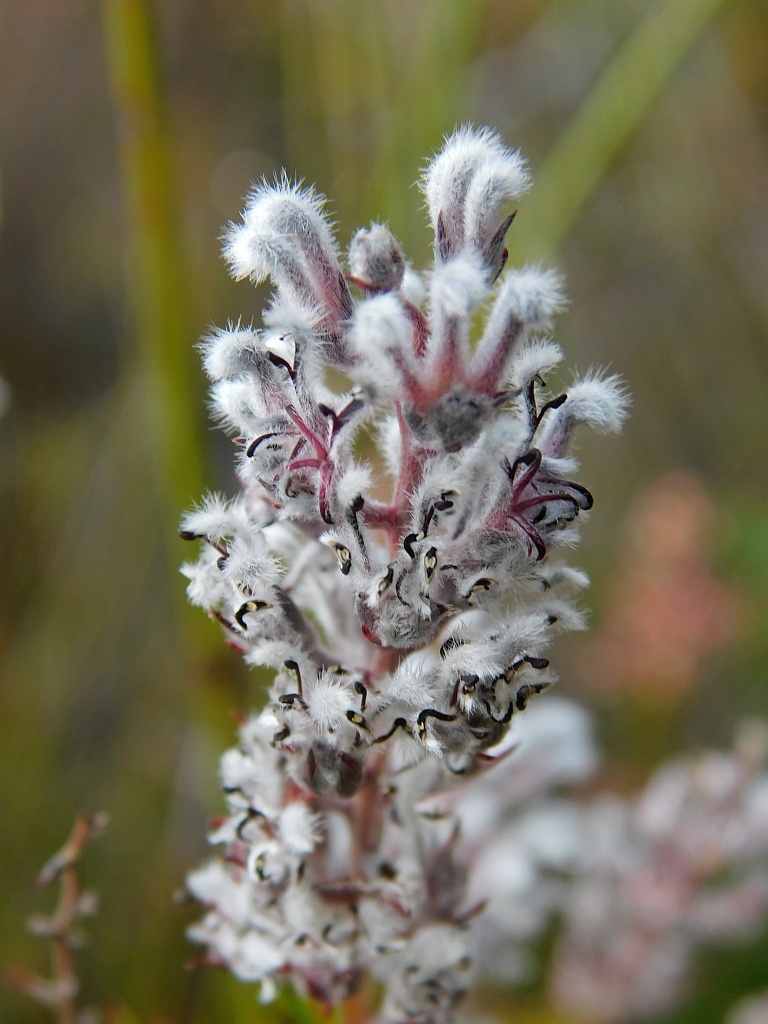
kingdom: Plantae
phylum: Tracheophyta
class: Magnoliopsida
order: Proteales
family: Proteaceae
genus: Spatalla
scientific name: Spatalla propinqua
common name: Lax spoon
